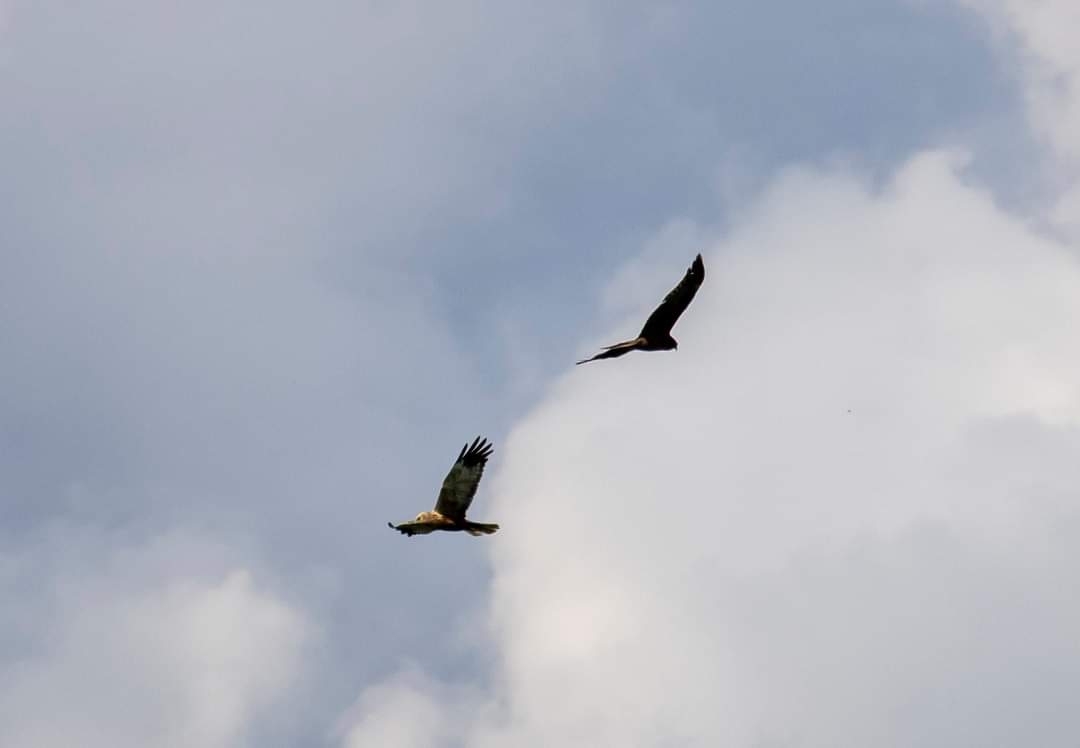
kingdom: Animalia
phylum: Chordata
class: Aves
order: Accipitriformes
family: Accipitridae
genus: Circus
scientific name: Circus aeruginosus
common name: Western marsh harrier
